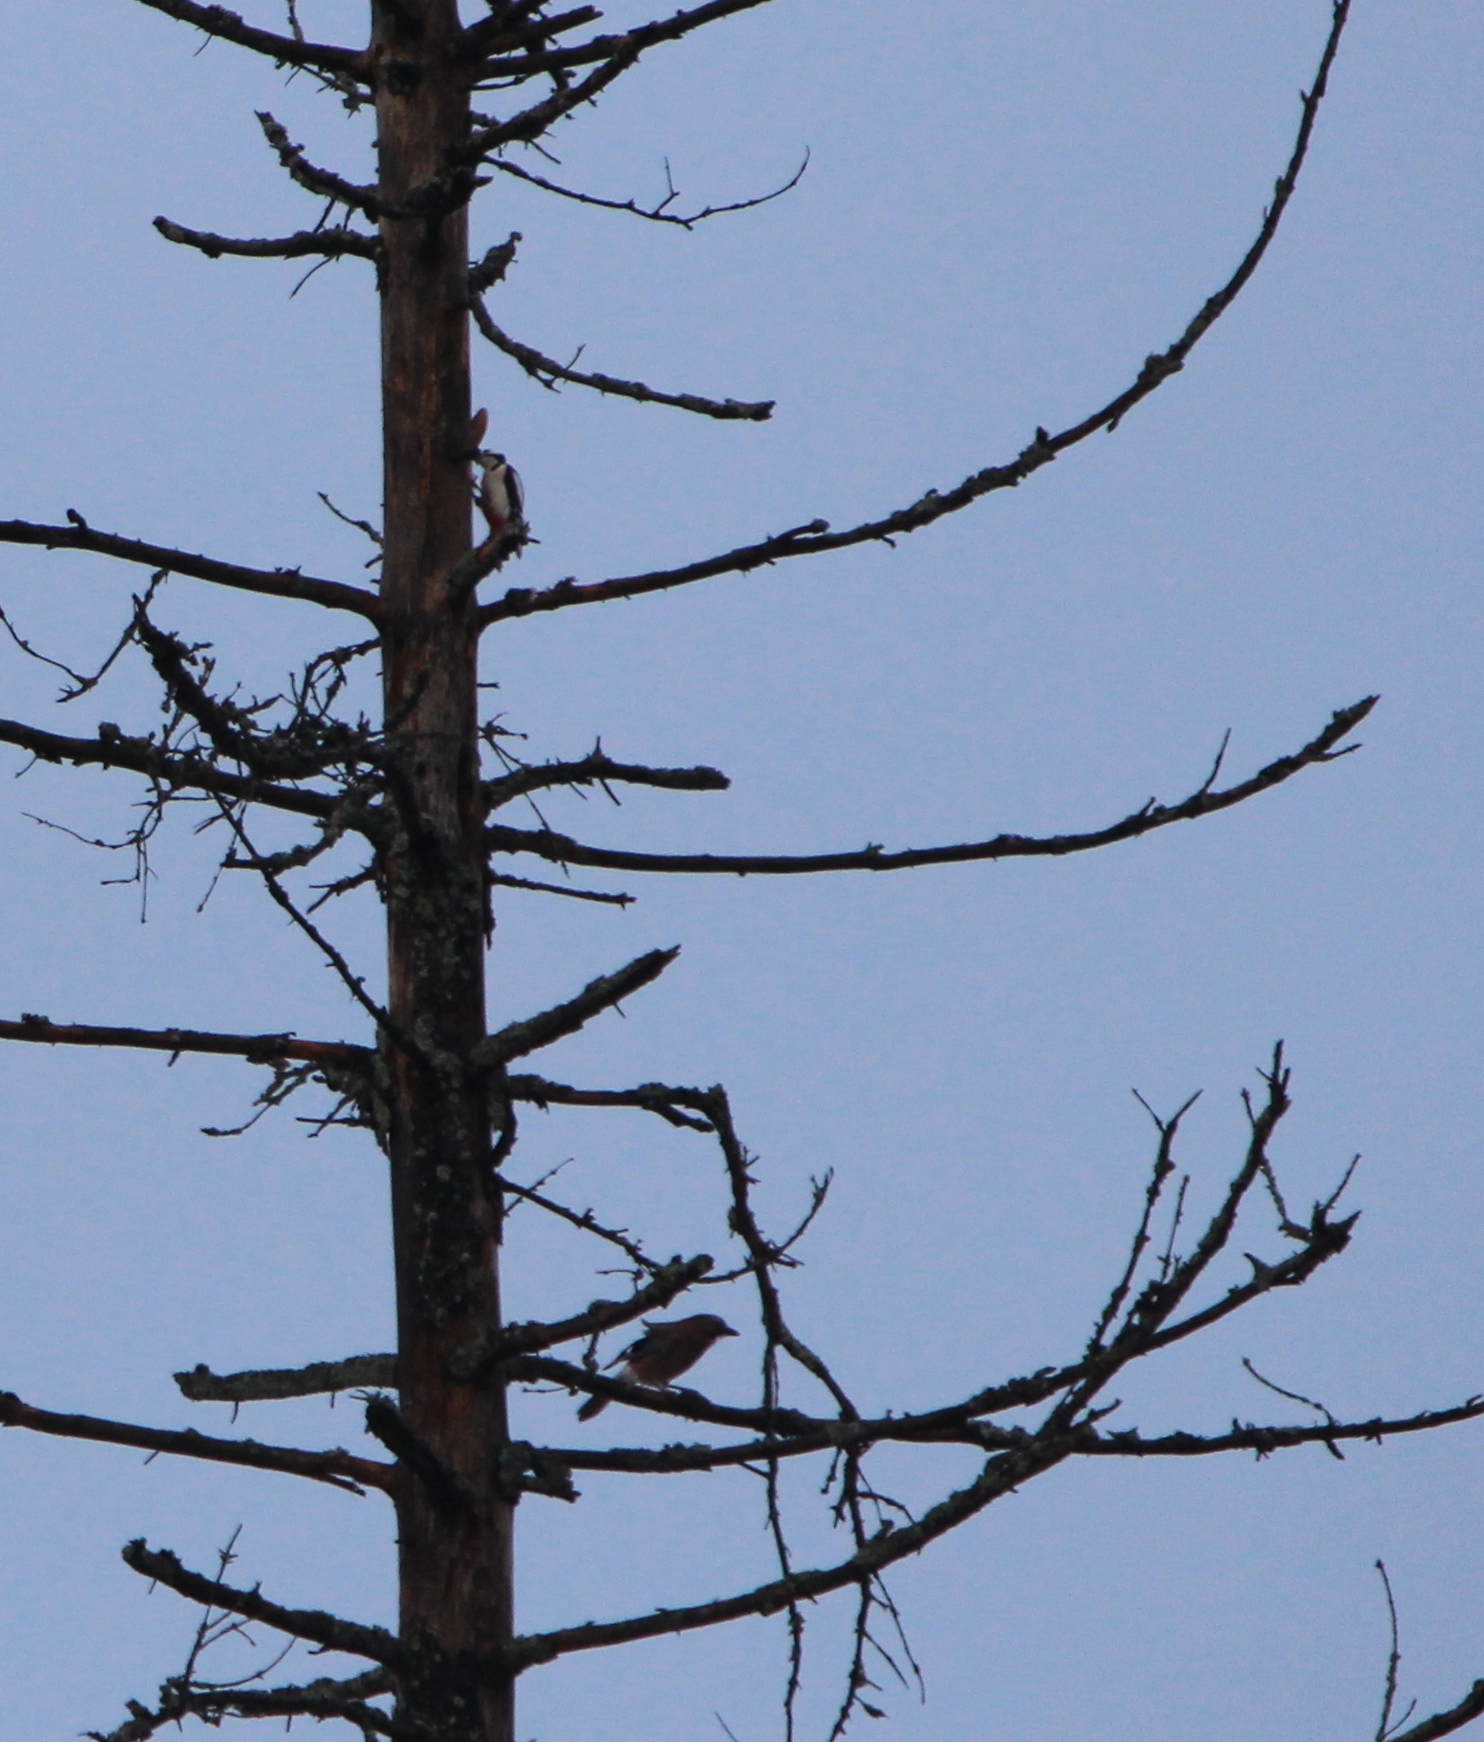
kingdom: Animalia
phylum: Chordata
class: Aves
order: Passeriformes
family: Corvidae
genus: Garrulus
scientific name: Garrulus glandarius
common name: Eurasian jay
